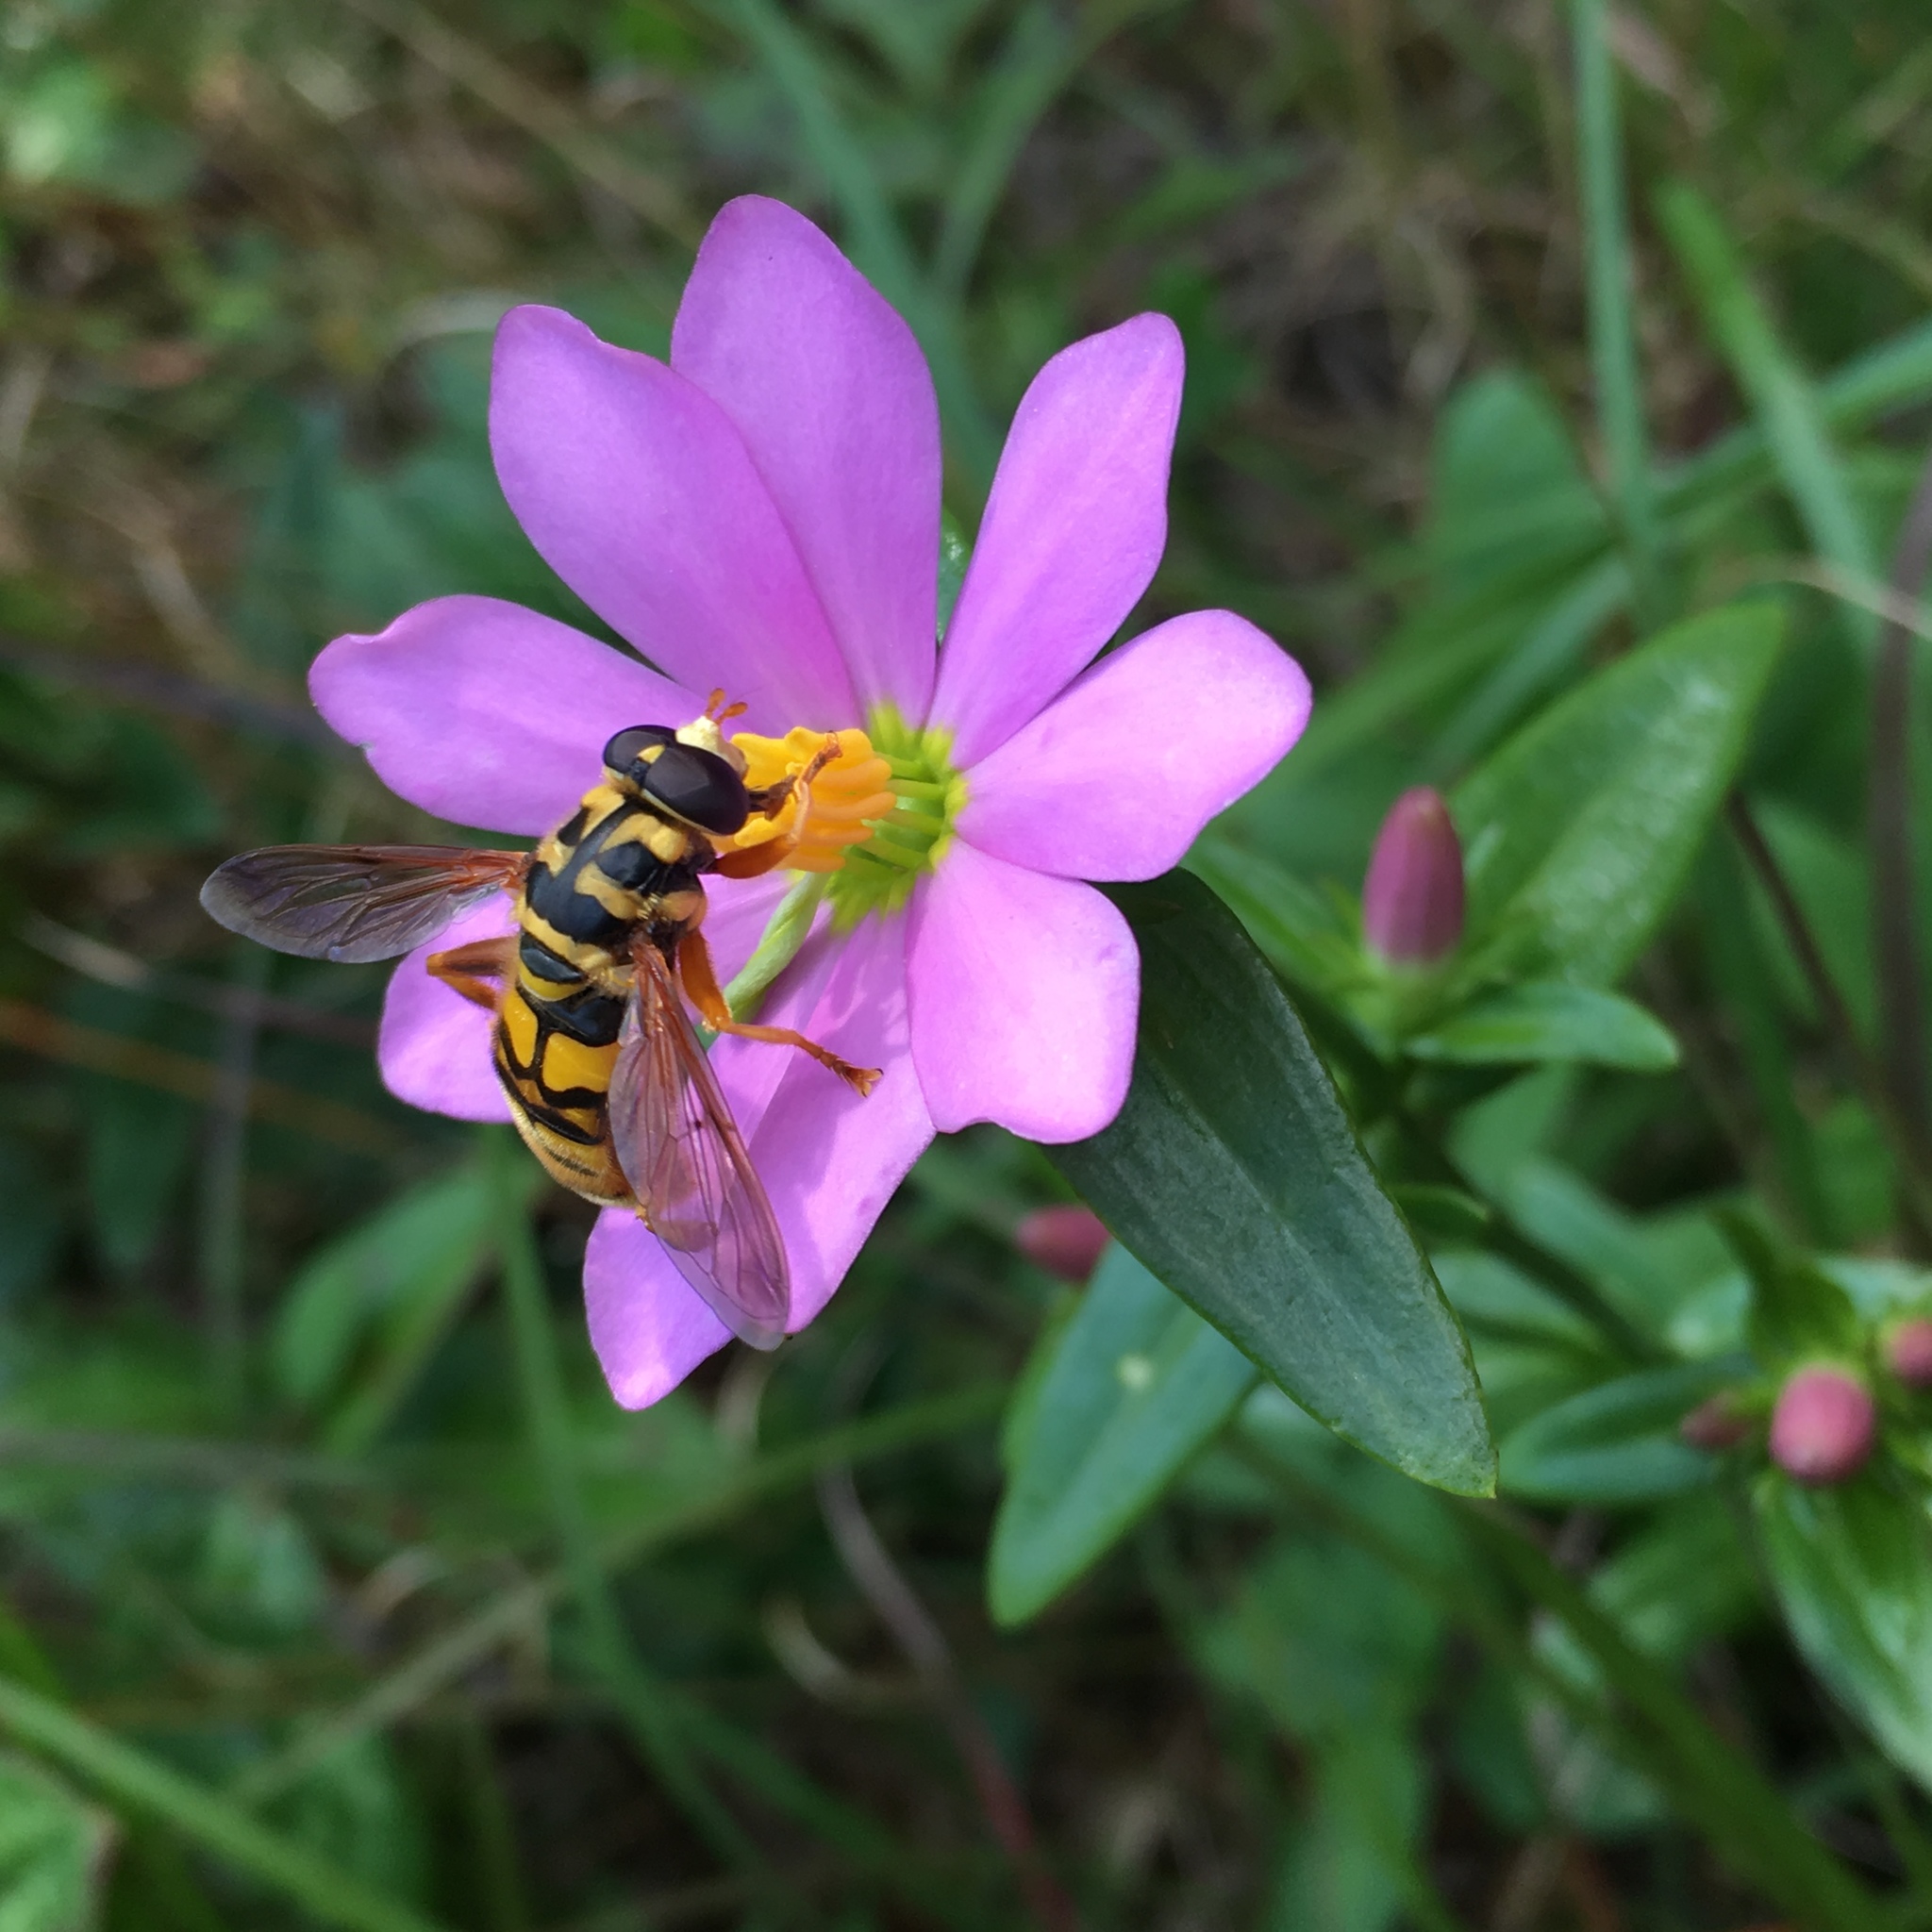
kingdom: Animalia
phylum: Arthropoda
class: Insecta
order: Diptera
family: Syrphidae
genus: Milesia
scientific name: Milesia virginiensis
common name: Virginia giant
